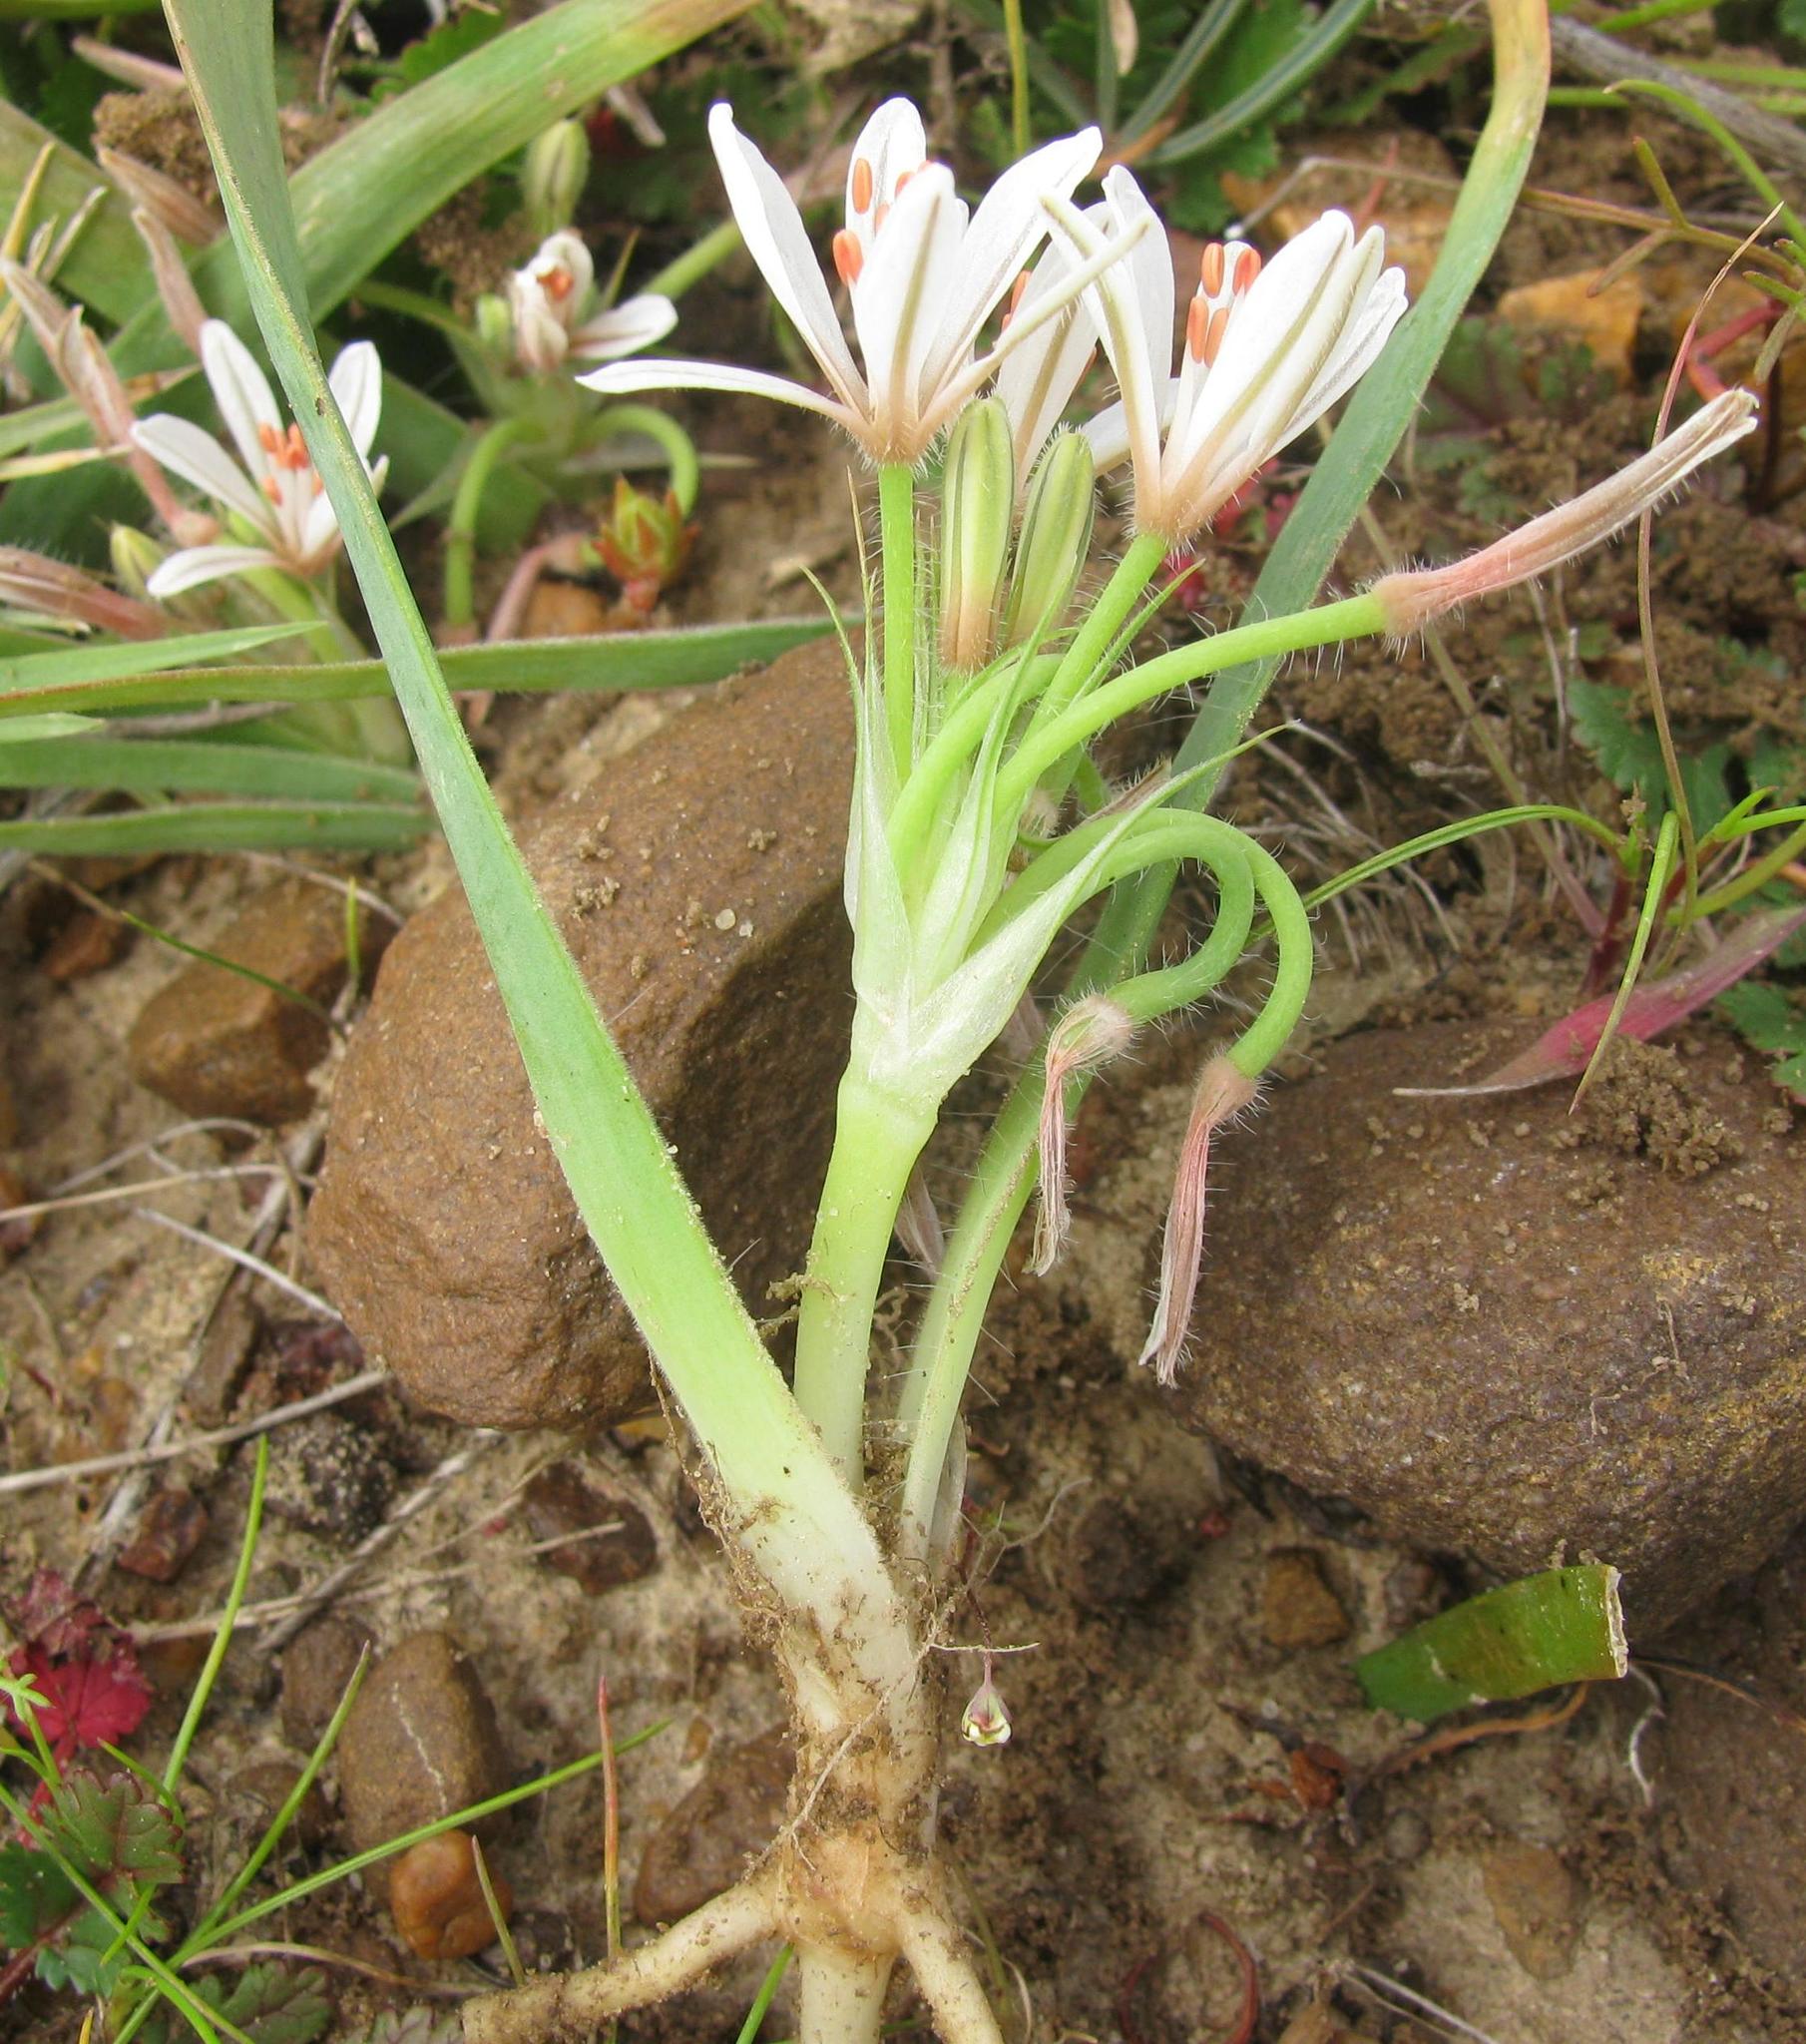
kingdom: Plantae
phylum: Tracheophyta
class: Liliopsida
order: Asparagales
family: Asphodelaceae
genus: Trachyandra
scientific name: Trachyandra hispida
